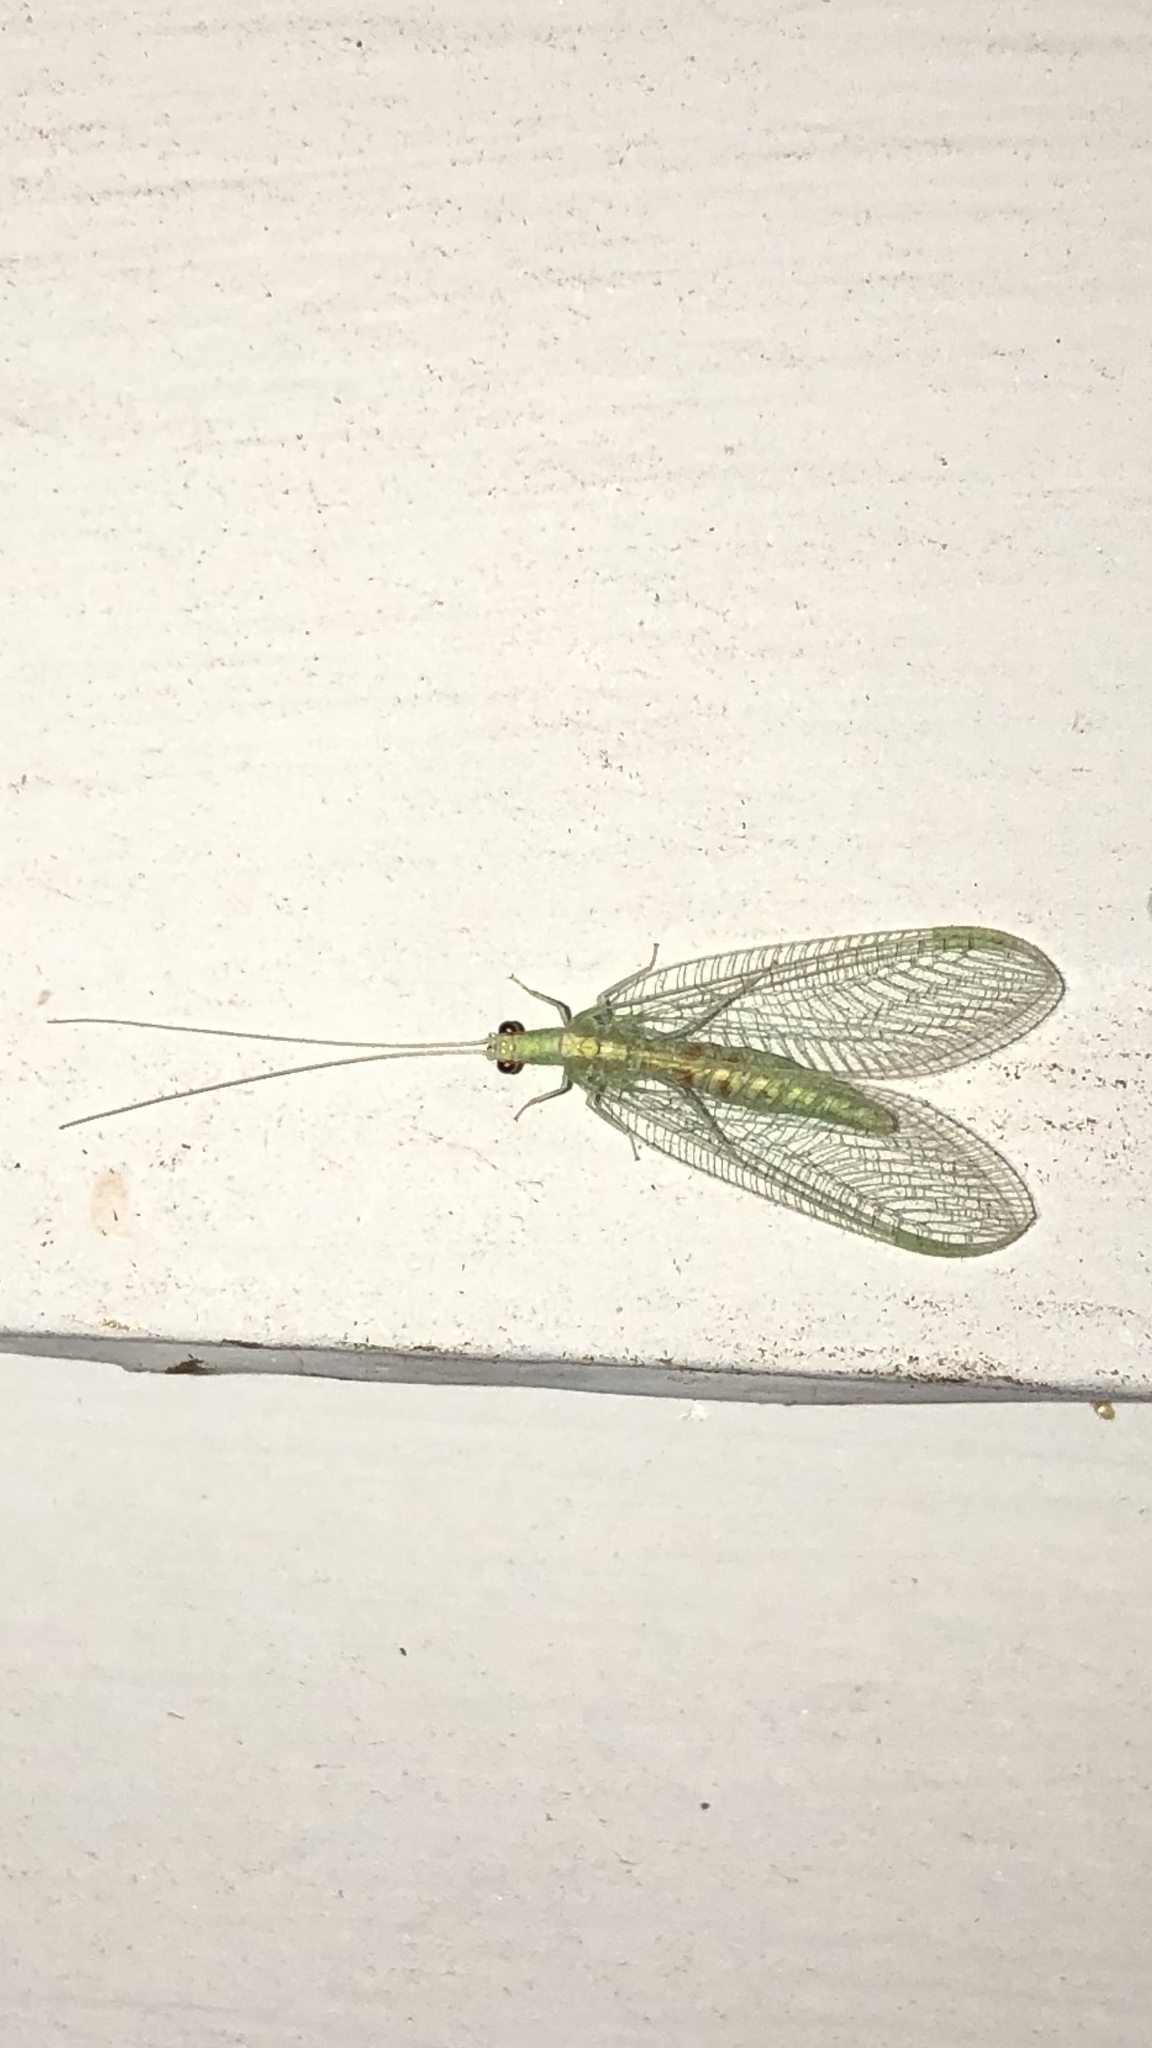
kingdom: Animalia
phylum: Arthropoda
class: Insecta
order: Neuroptera
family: Chrysopidae
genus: Chrysopa
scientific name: Chrysopa quadripunctata
